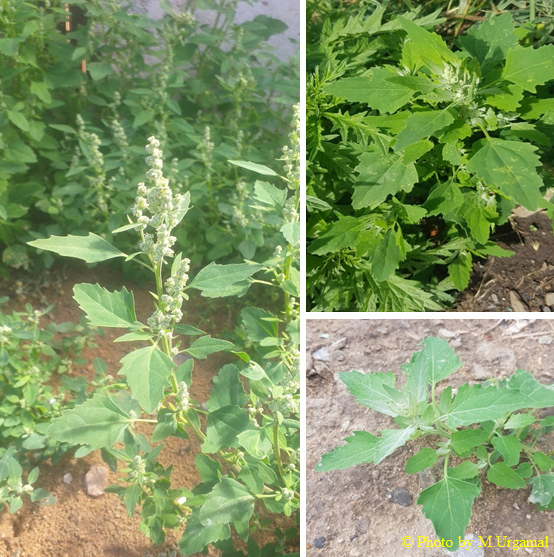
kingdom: Plantae
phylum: Tracheophyta
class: Magnoliopsida
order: Caryophyllales
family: Amaranthaceae
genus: Chenopodium
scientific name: Chenopodium album
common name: Fat-hen
